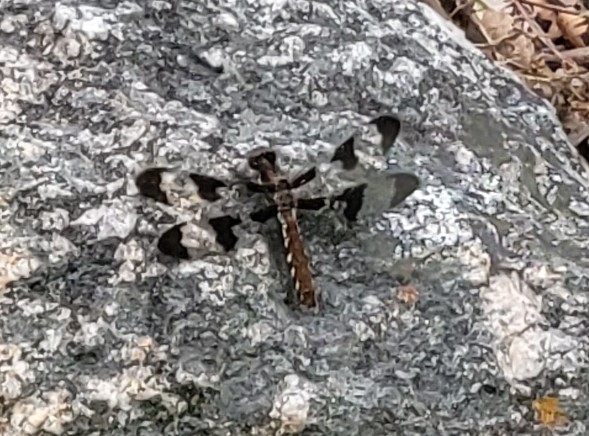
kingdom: Animalia
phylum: Arthropoda
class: Insecta
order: Odonata
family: Libellulidae
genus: Plathemis
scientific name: Plathemis lydia
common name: Common whitetail
